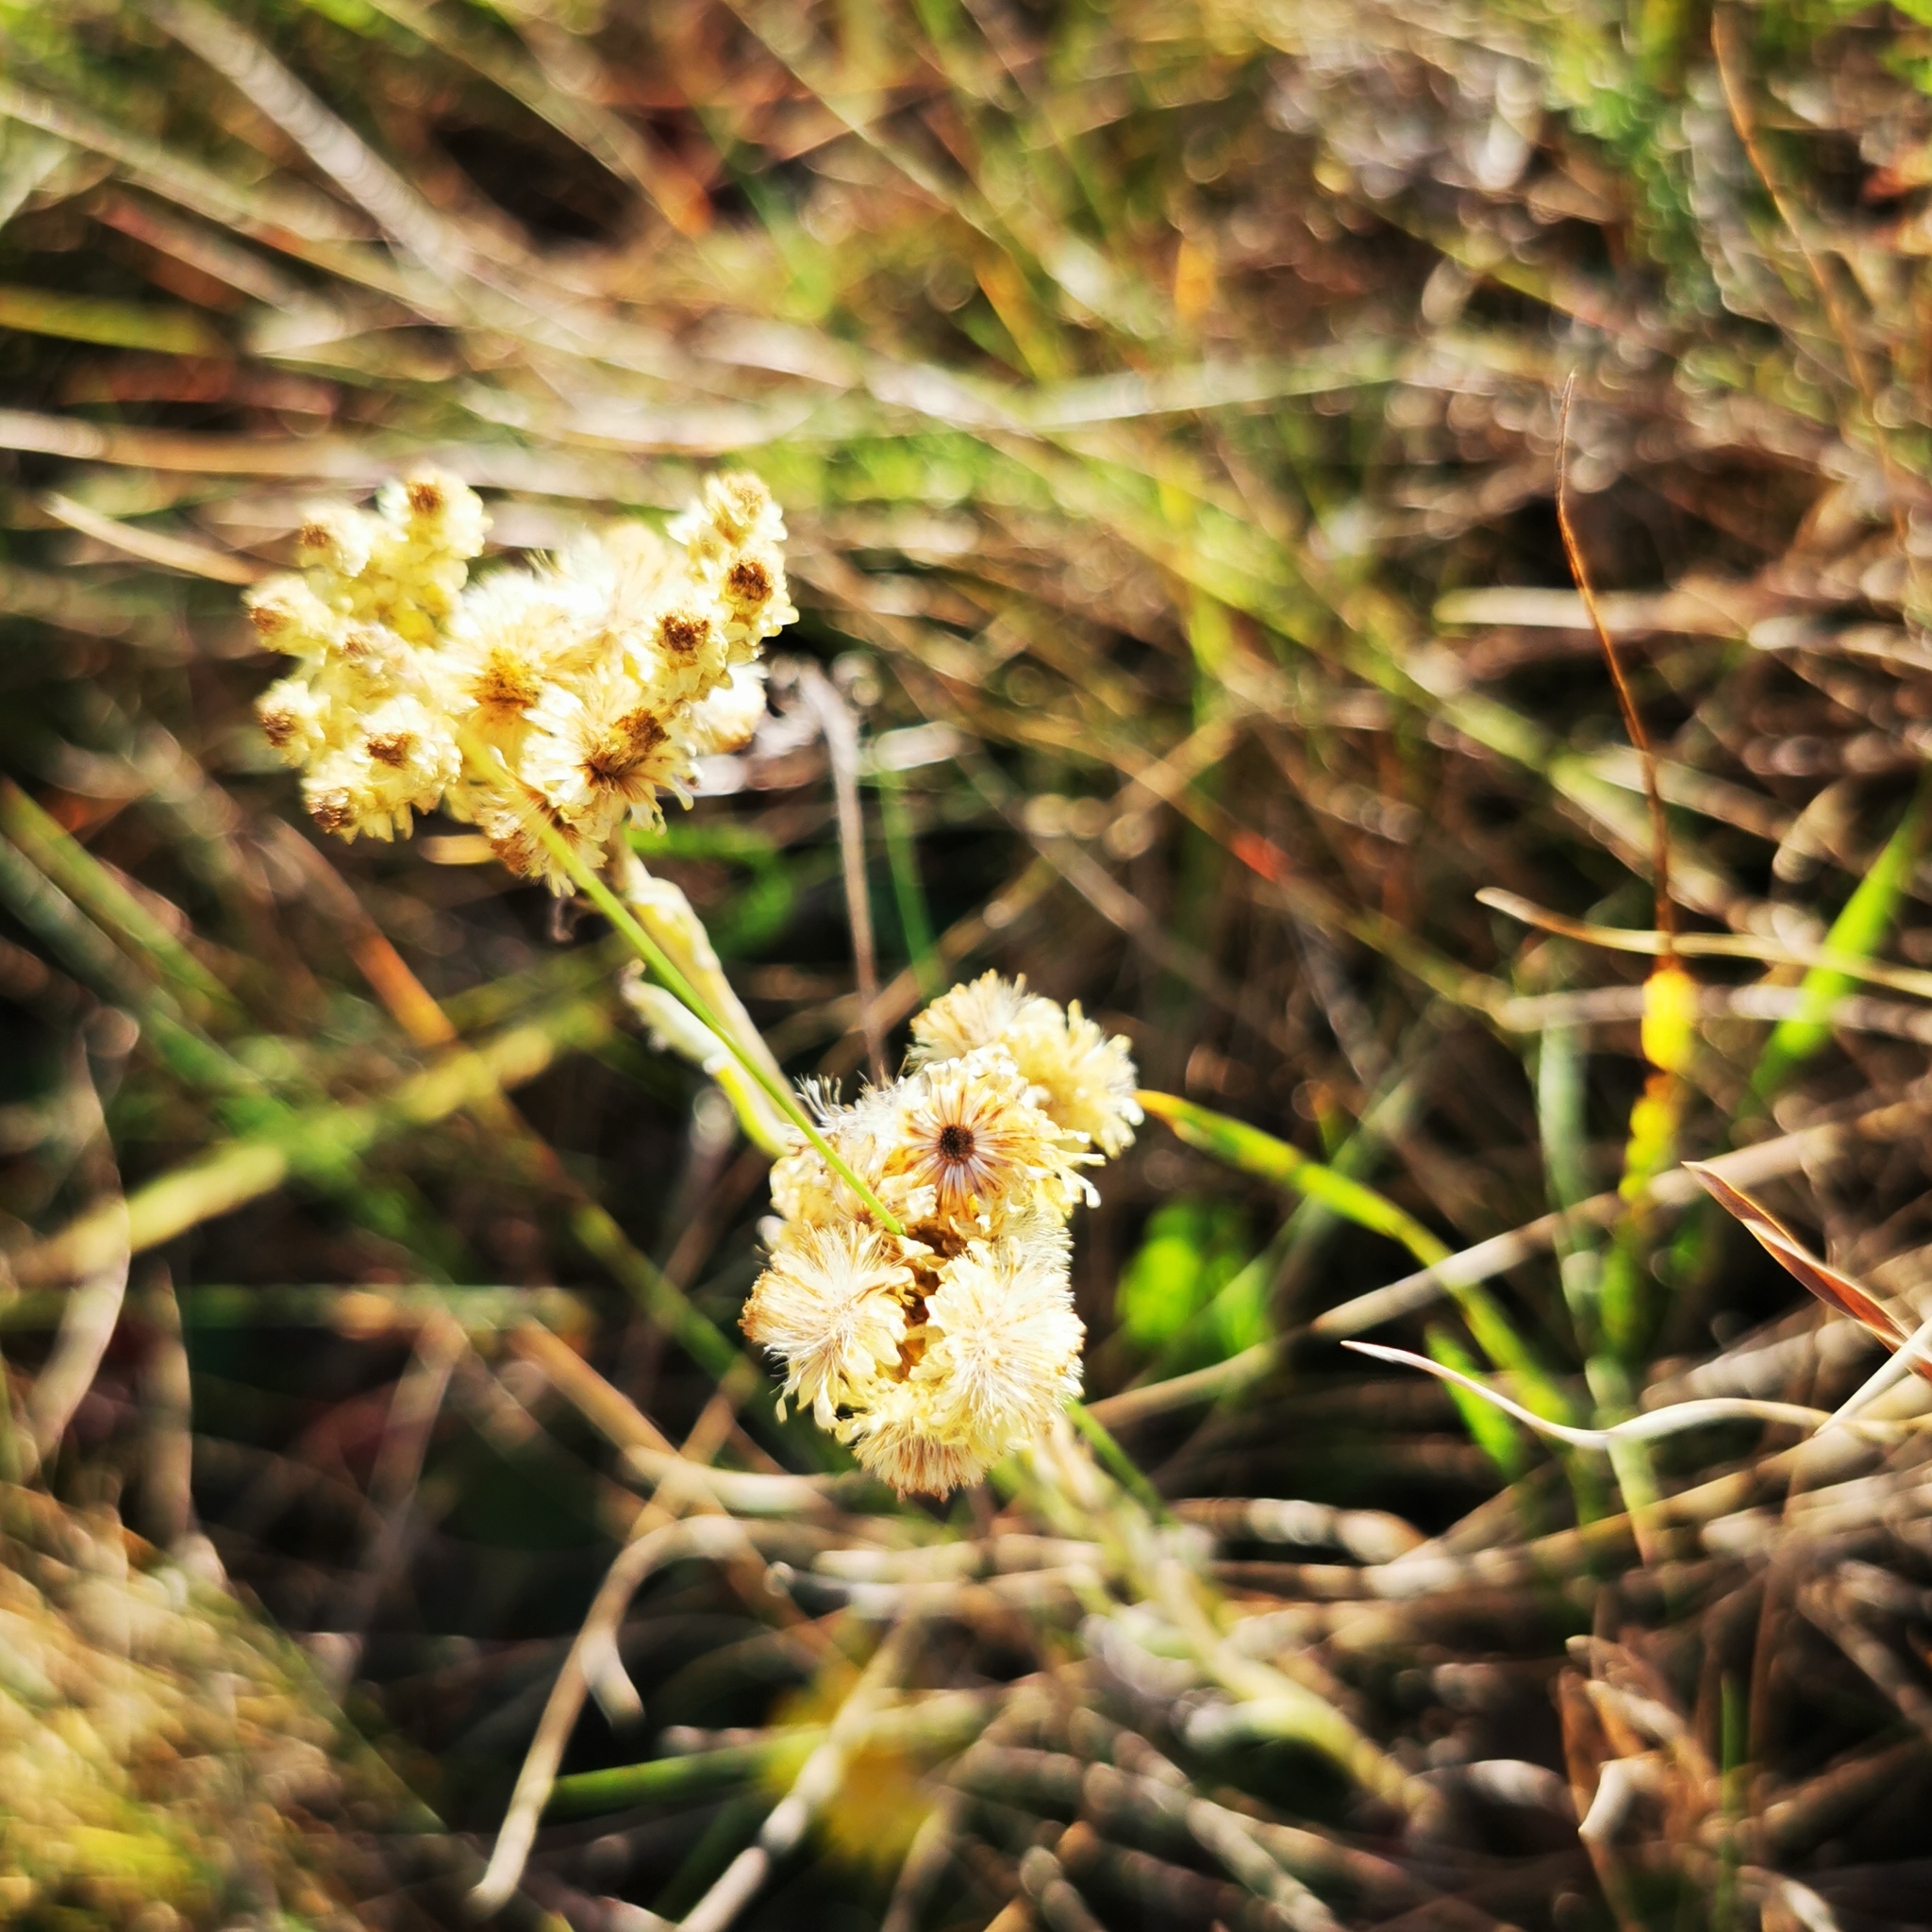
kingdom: Plantae
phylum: Tracheophyta
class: Magnoliopsida
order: Asterales
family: Asteraceae
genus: Helichrysum
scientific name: Helichrysum arenarium
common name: Strawflower
